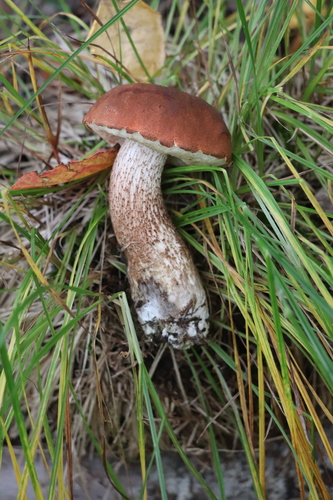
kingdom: Fungi
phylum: Basidiomycota
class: Agaricomycetes
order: Boletales
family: Boletaceae
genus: Leccinum
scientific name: Leccinum aurantiacum
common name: Orange bolete
